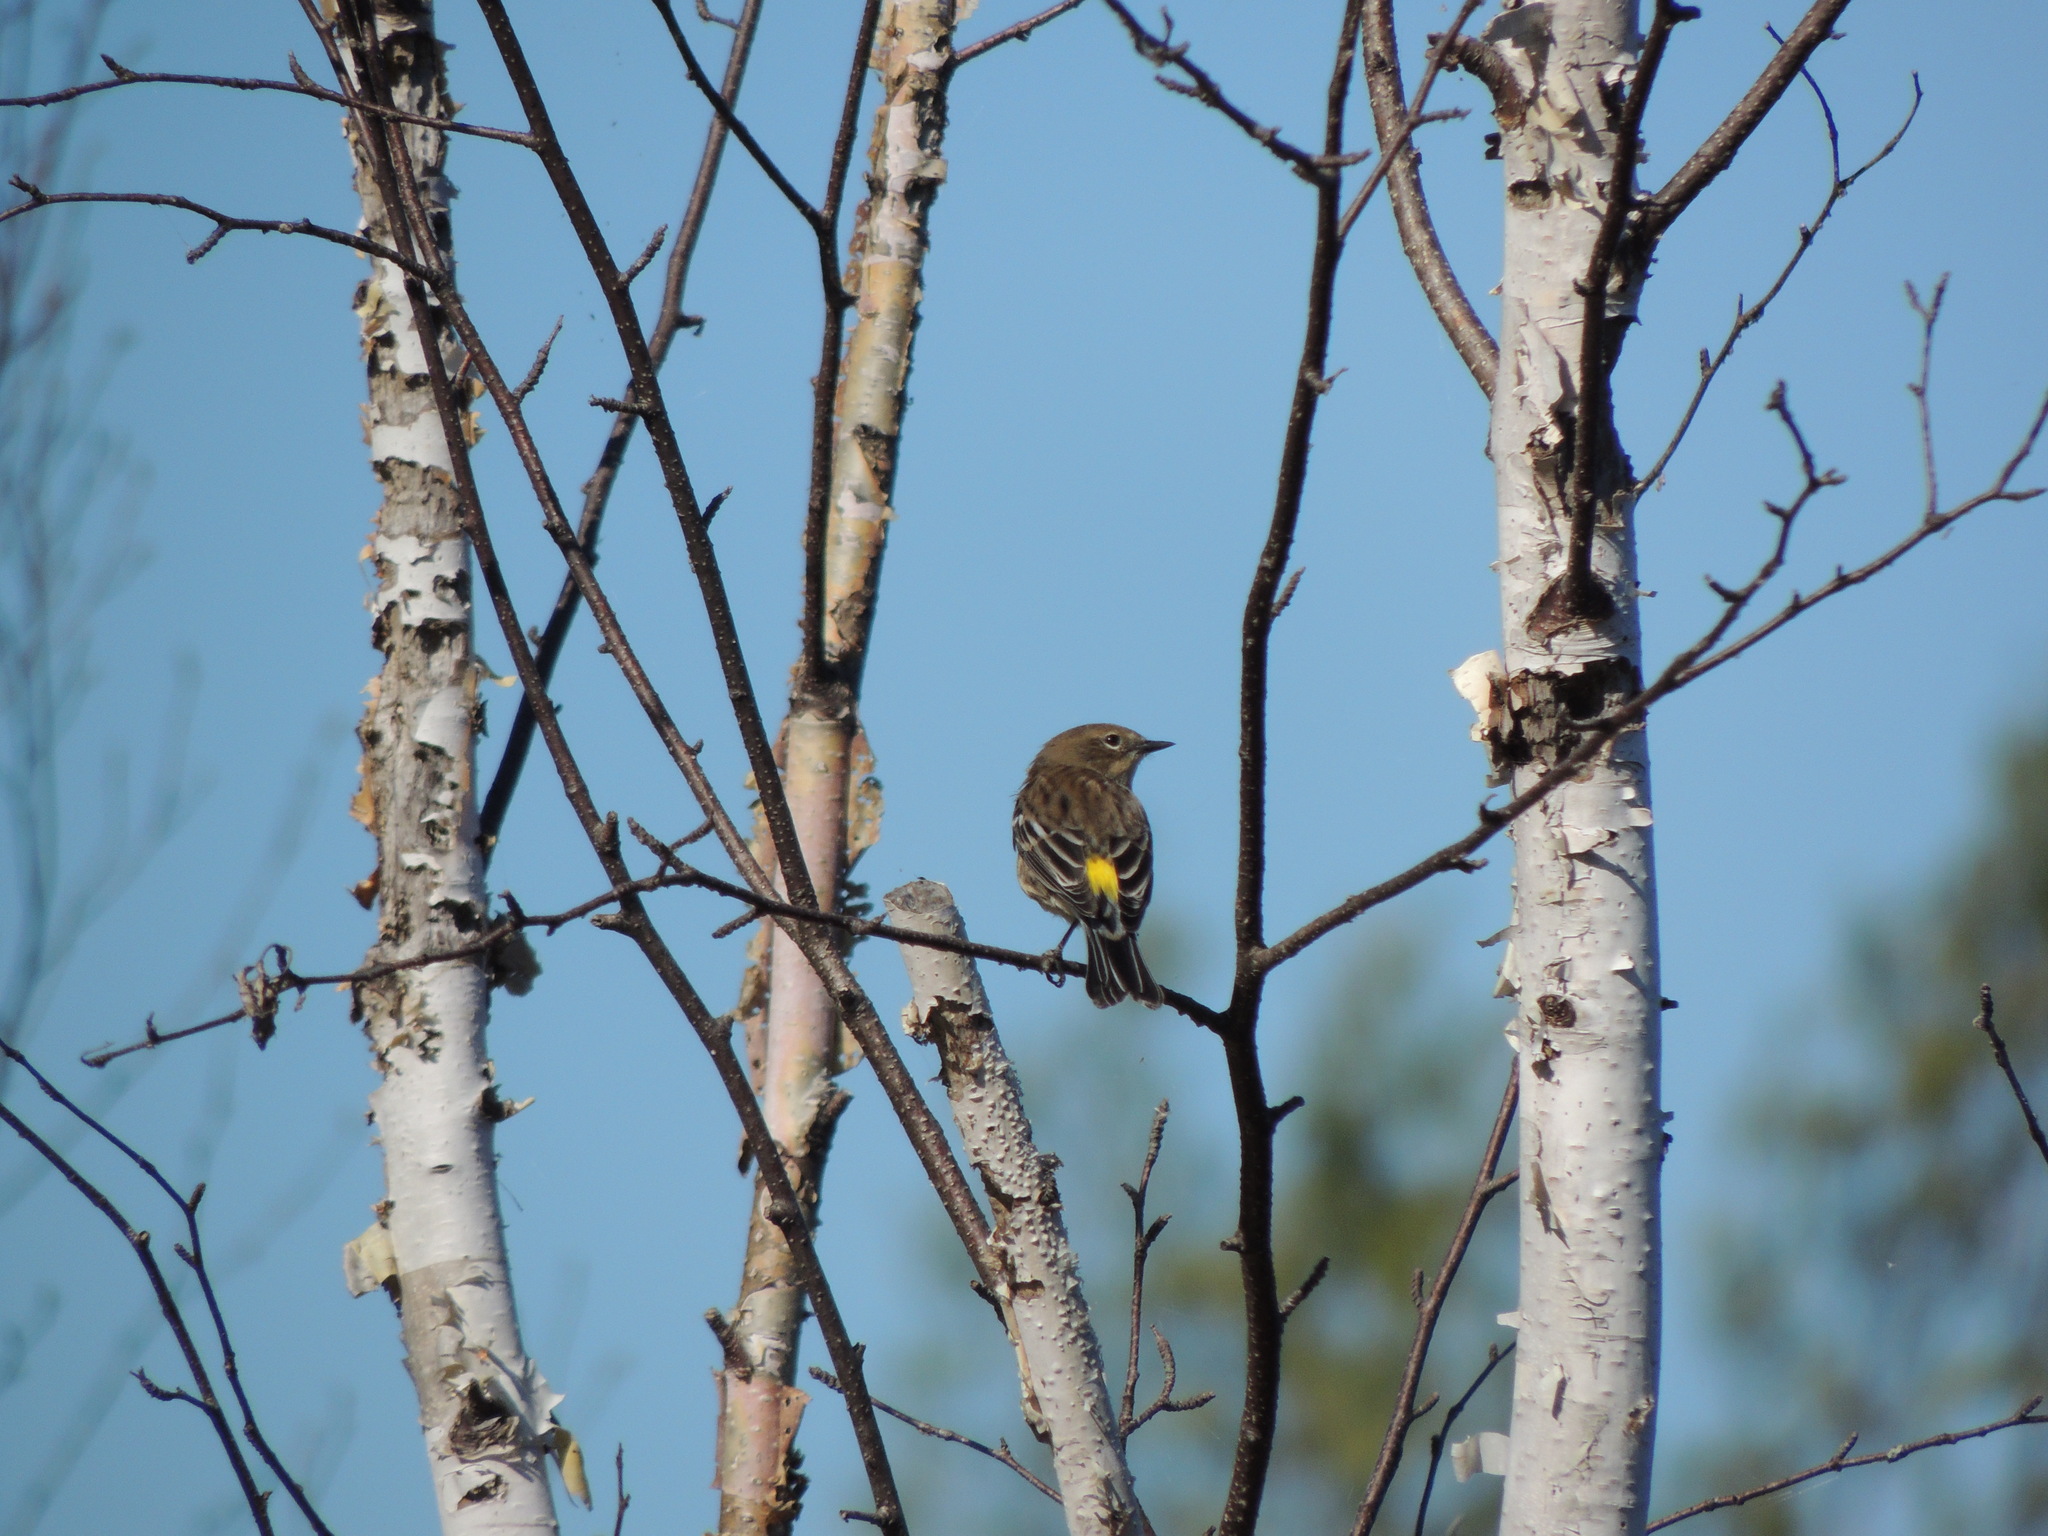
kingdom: Animalia
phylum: Chordata
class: Aves
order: Passeriformes
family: Parulidae
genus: Setophaga
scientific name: Setophaga coronata
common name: Myrtle warbler
